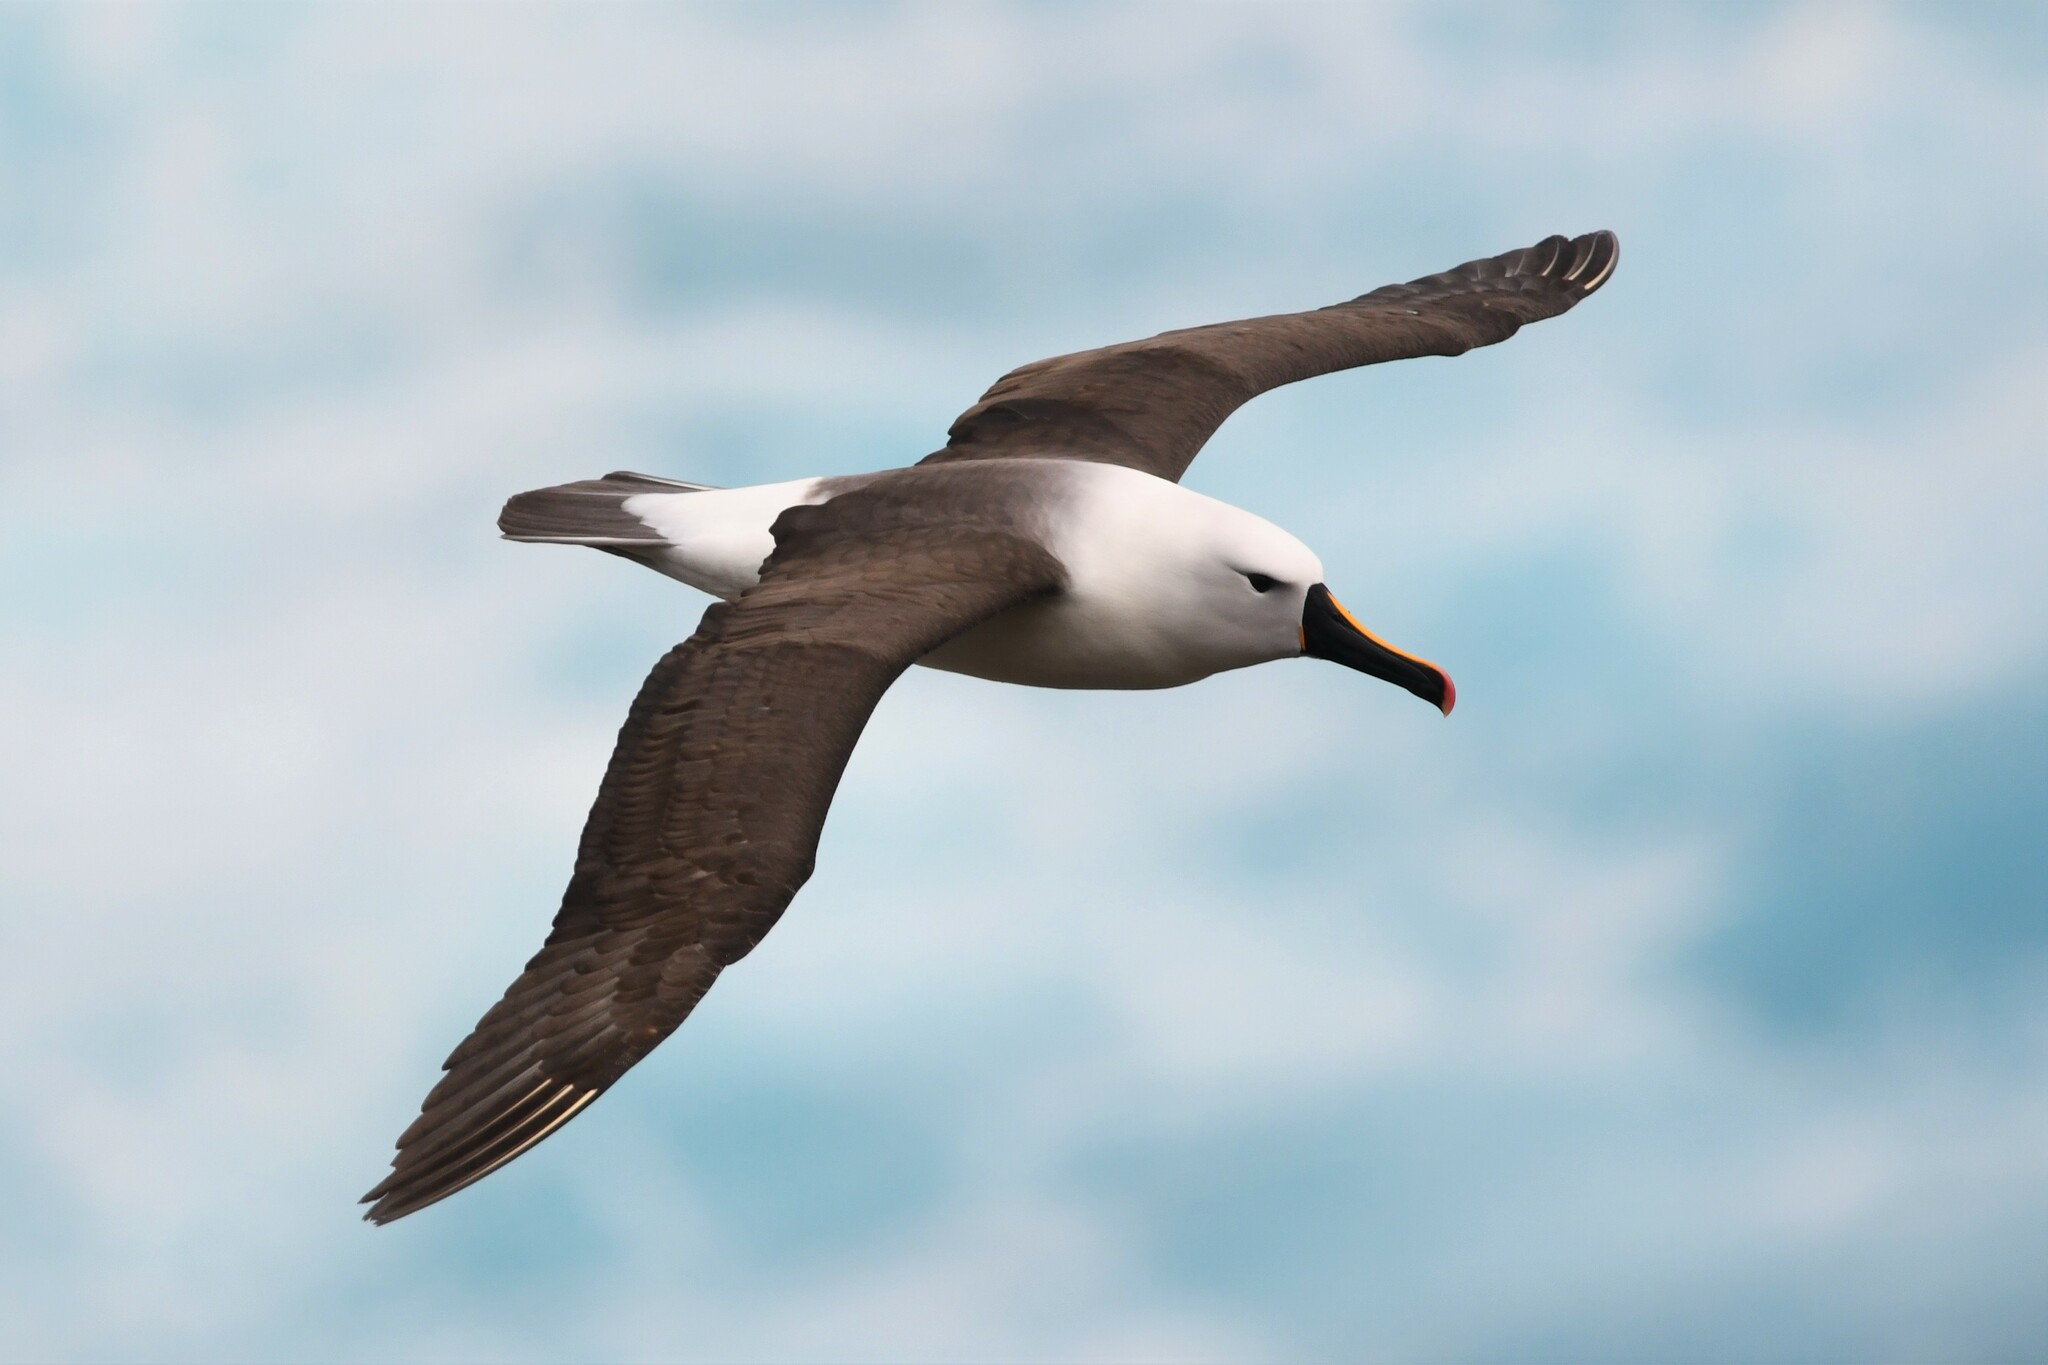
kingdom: Animalia
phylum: Chordata
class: Aves
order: Procellariiformes
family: Diomedeidae
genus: Thalassarche
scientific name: Thalassarche carteri
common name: Indian yellow-nosed albatross
